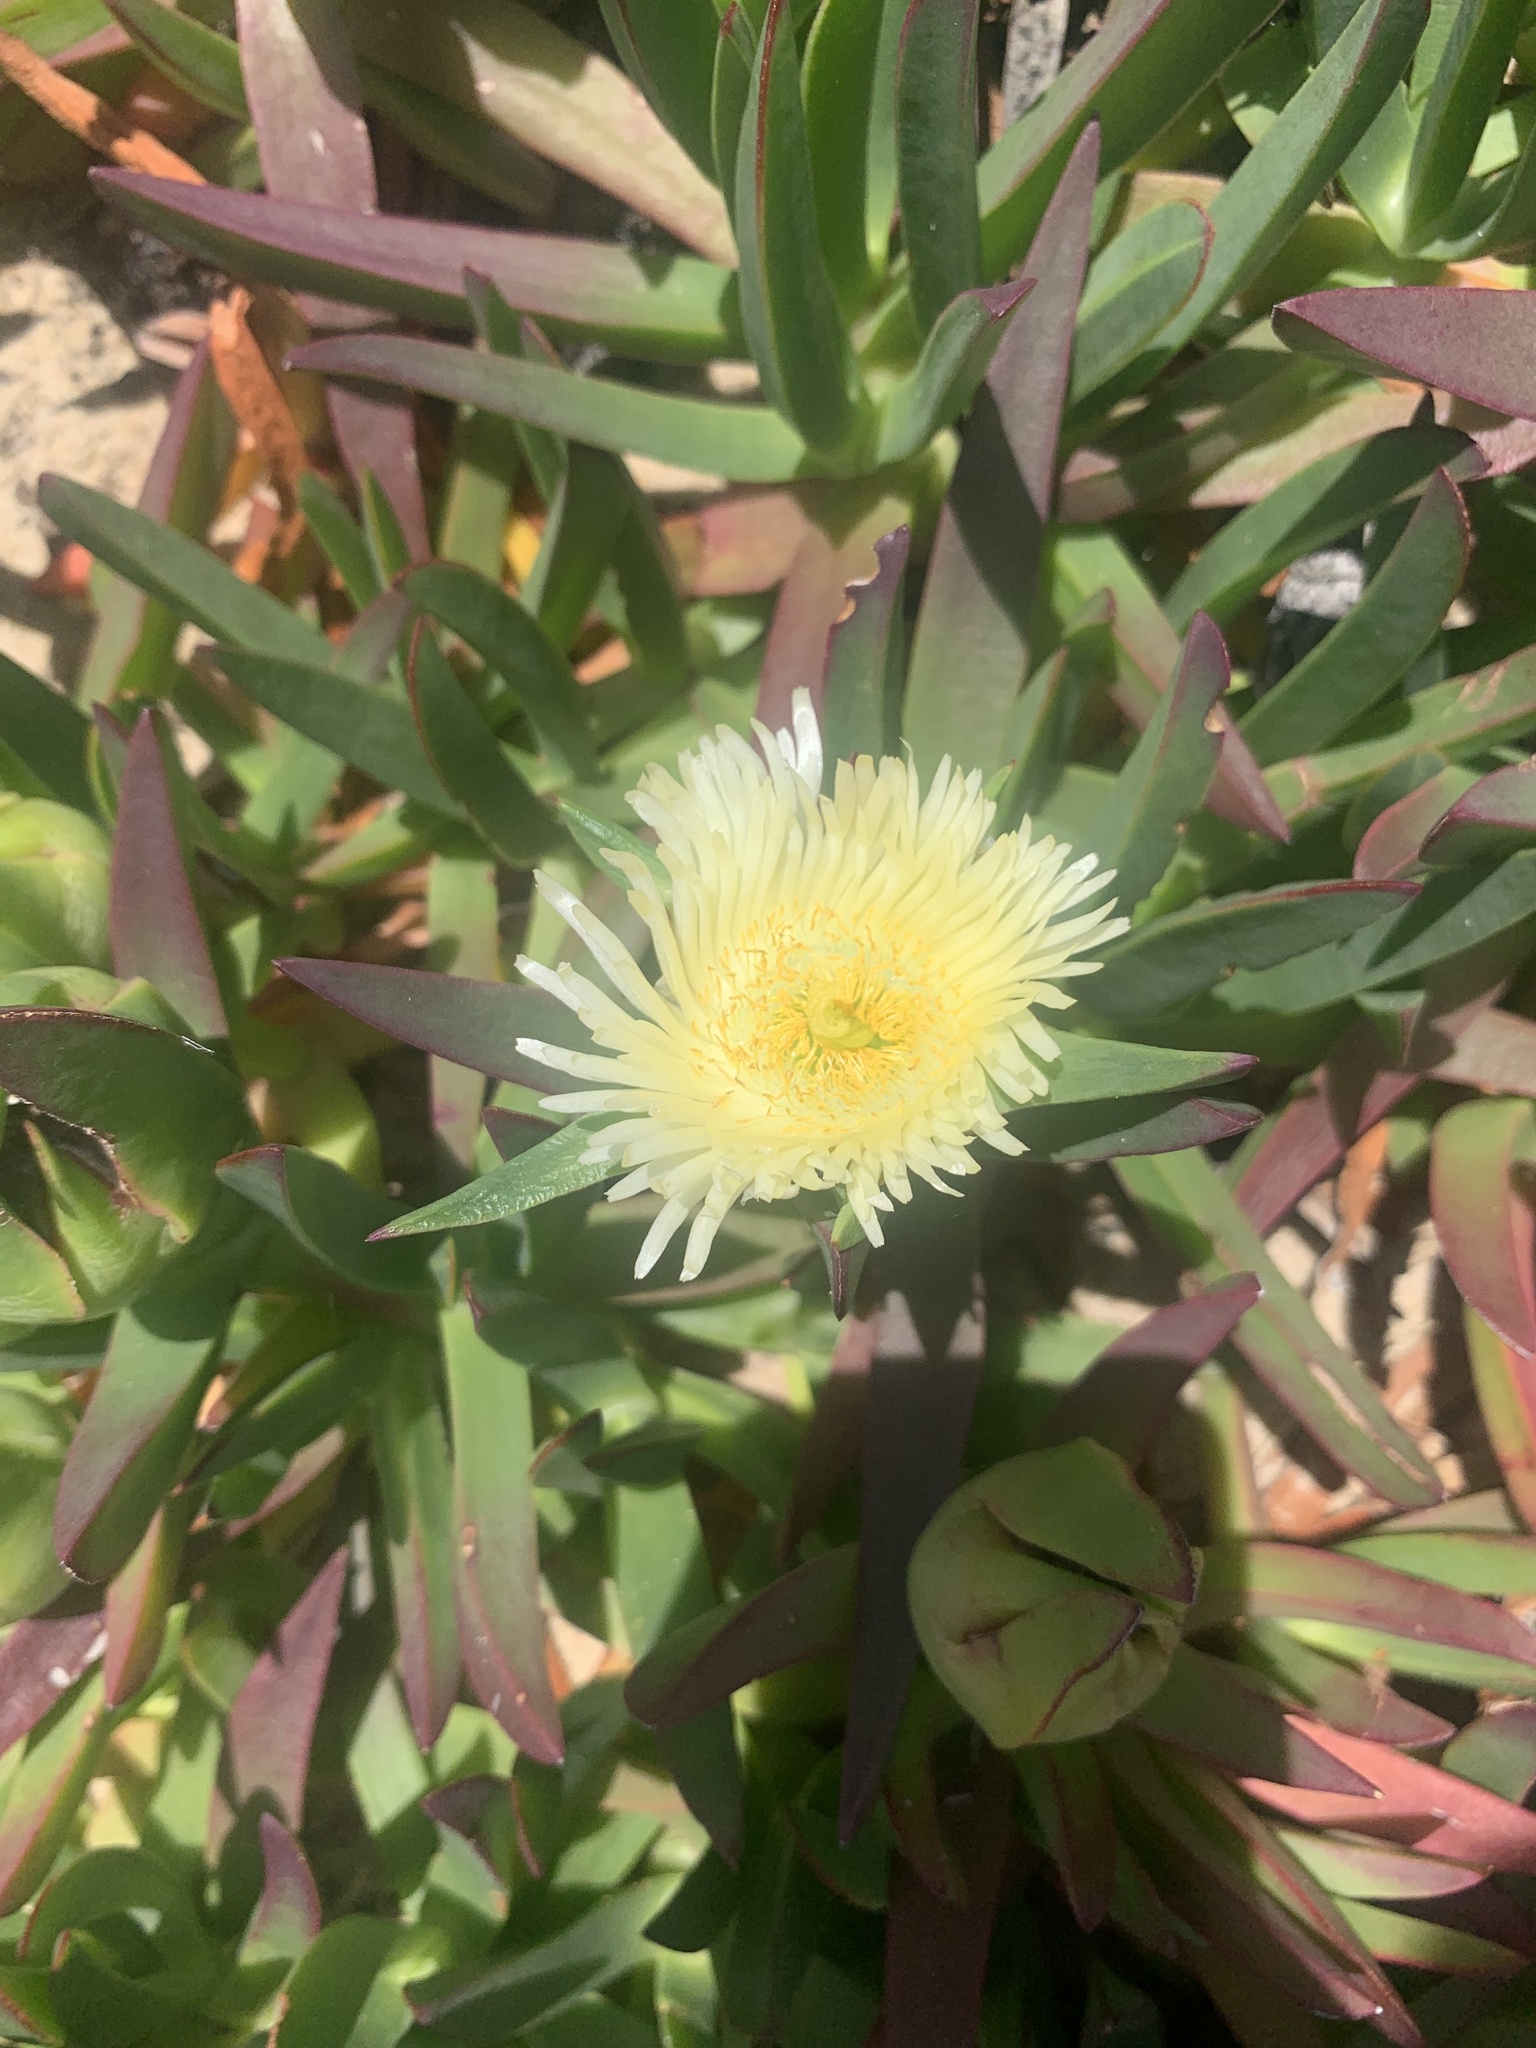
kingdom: Plantae
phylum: Tracheophyta
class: Magnoliopsida
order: Caryophyllales
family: Aizoaceae
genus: Carpobrotus
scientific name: Carpobrotus edulis
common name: Hottentot-fig
